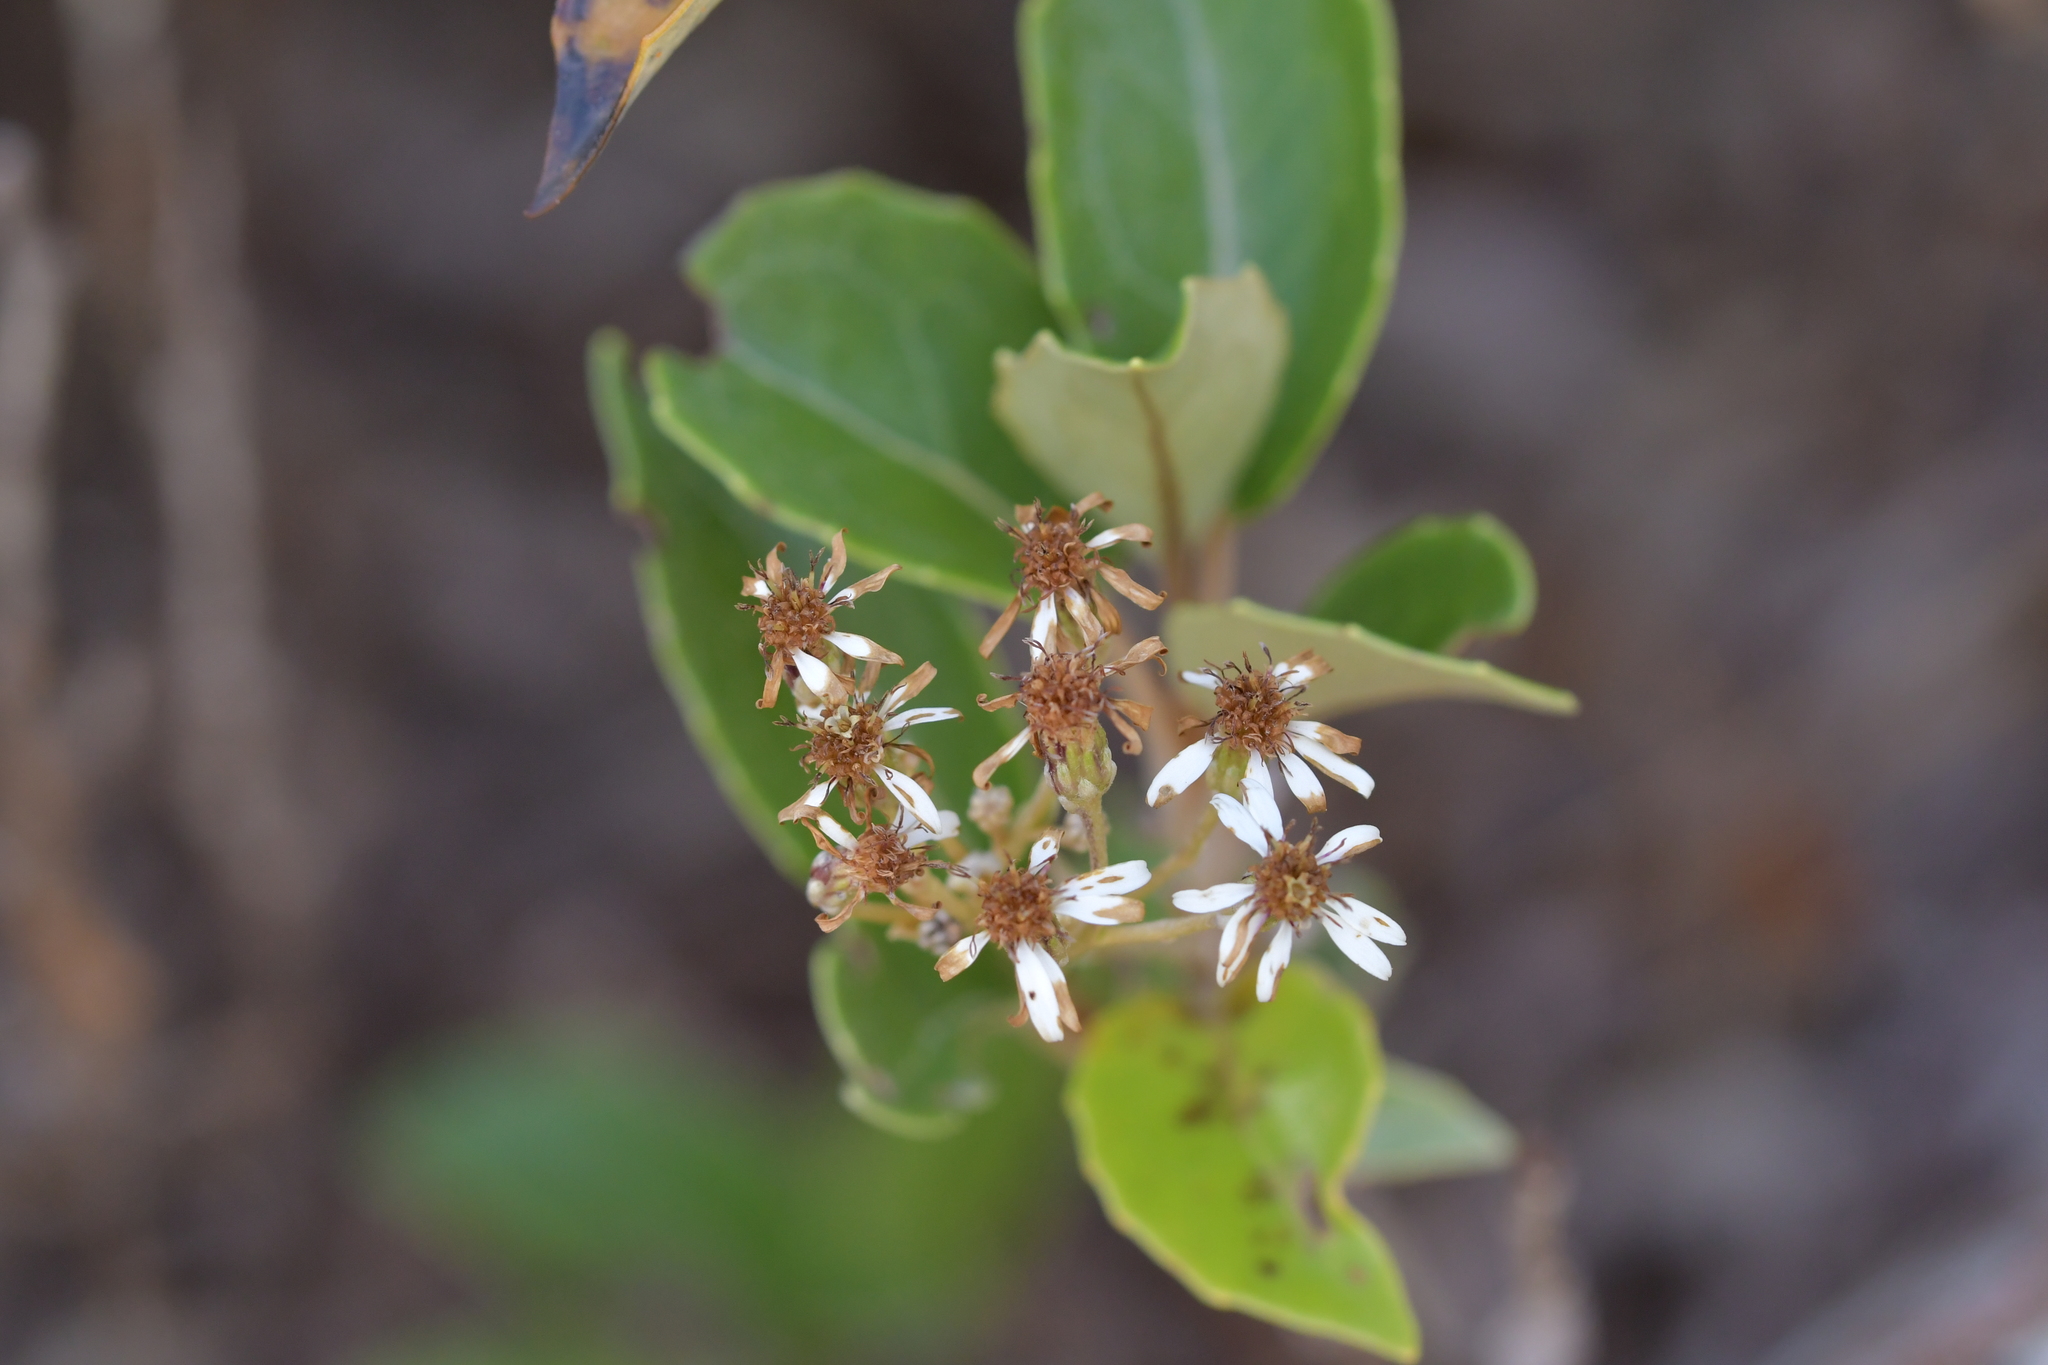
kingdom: Plantae
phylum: Tracheophyta
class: Magnoliopsida
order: Asterales
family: Asteraceae
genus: Olearia
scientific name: Olearia arborescens
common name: Glossy tree daisy
